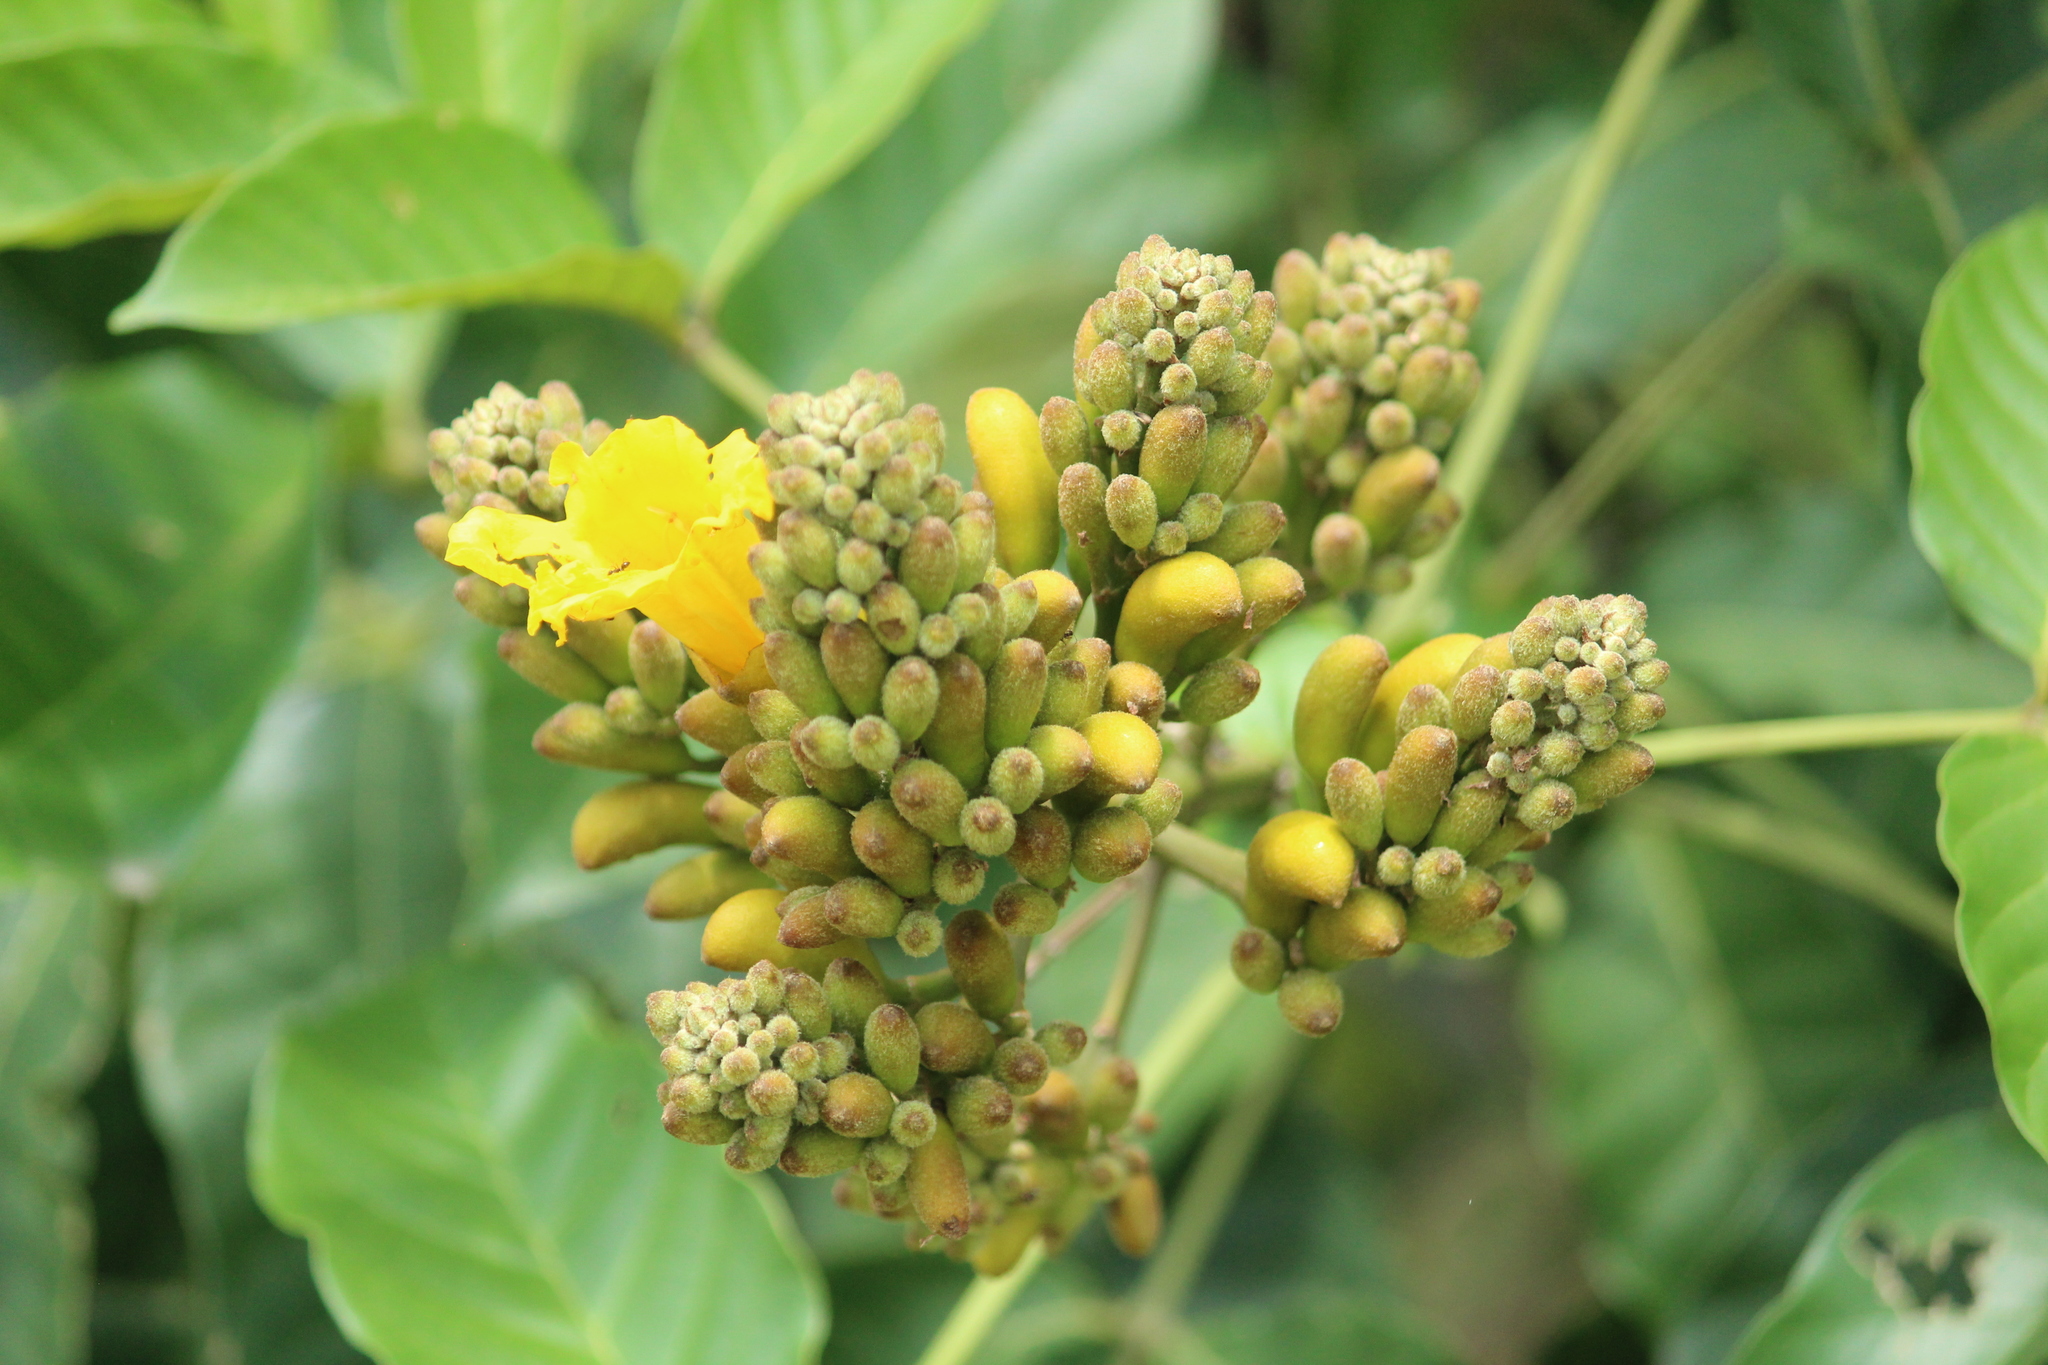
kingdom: Plantae
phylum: Tracheophyta
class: Magnoliopsida
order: Lamiales
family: Bignoniaceae
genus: Markhamia
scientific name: Markhamia lutea
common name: Siala
